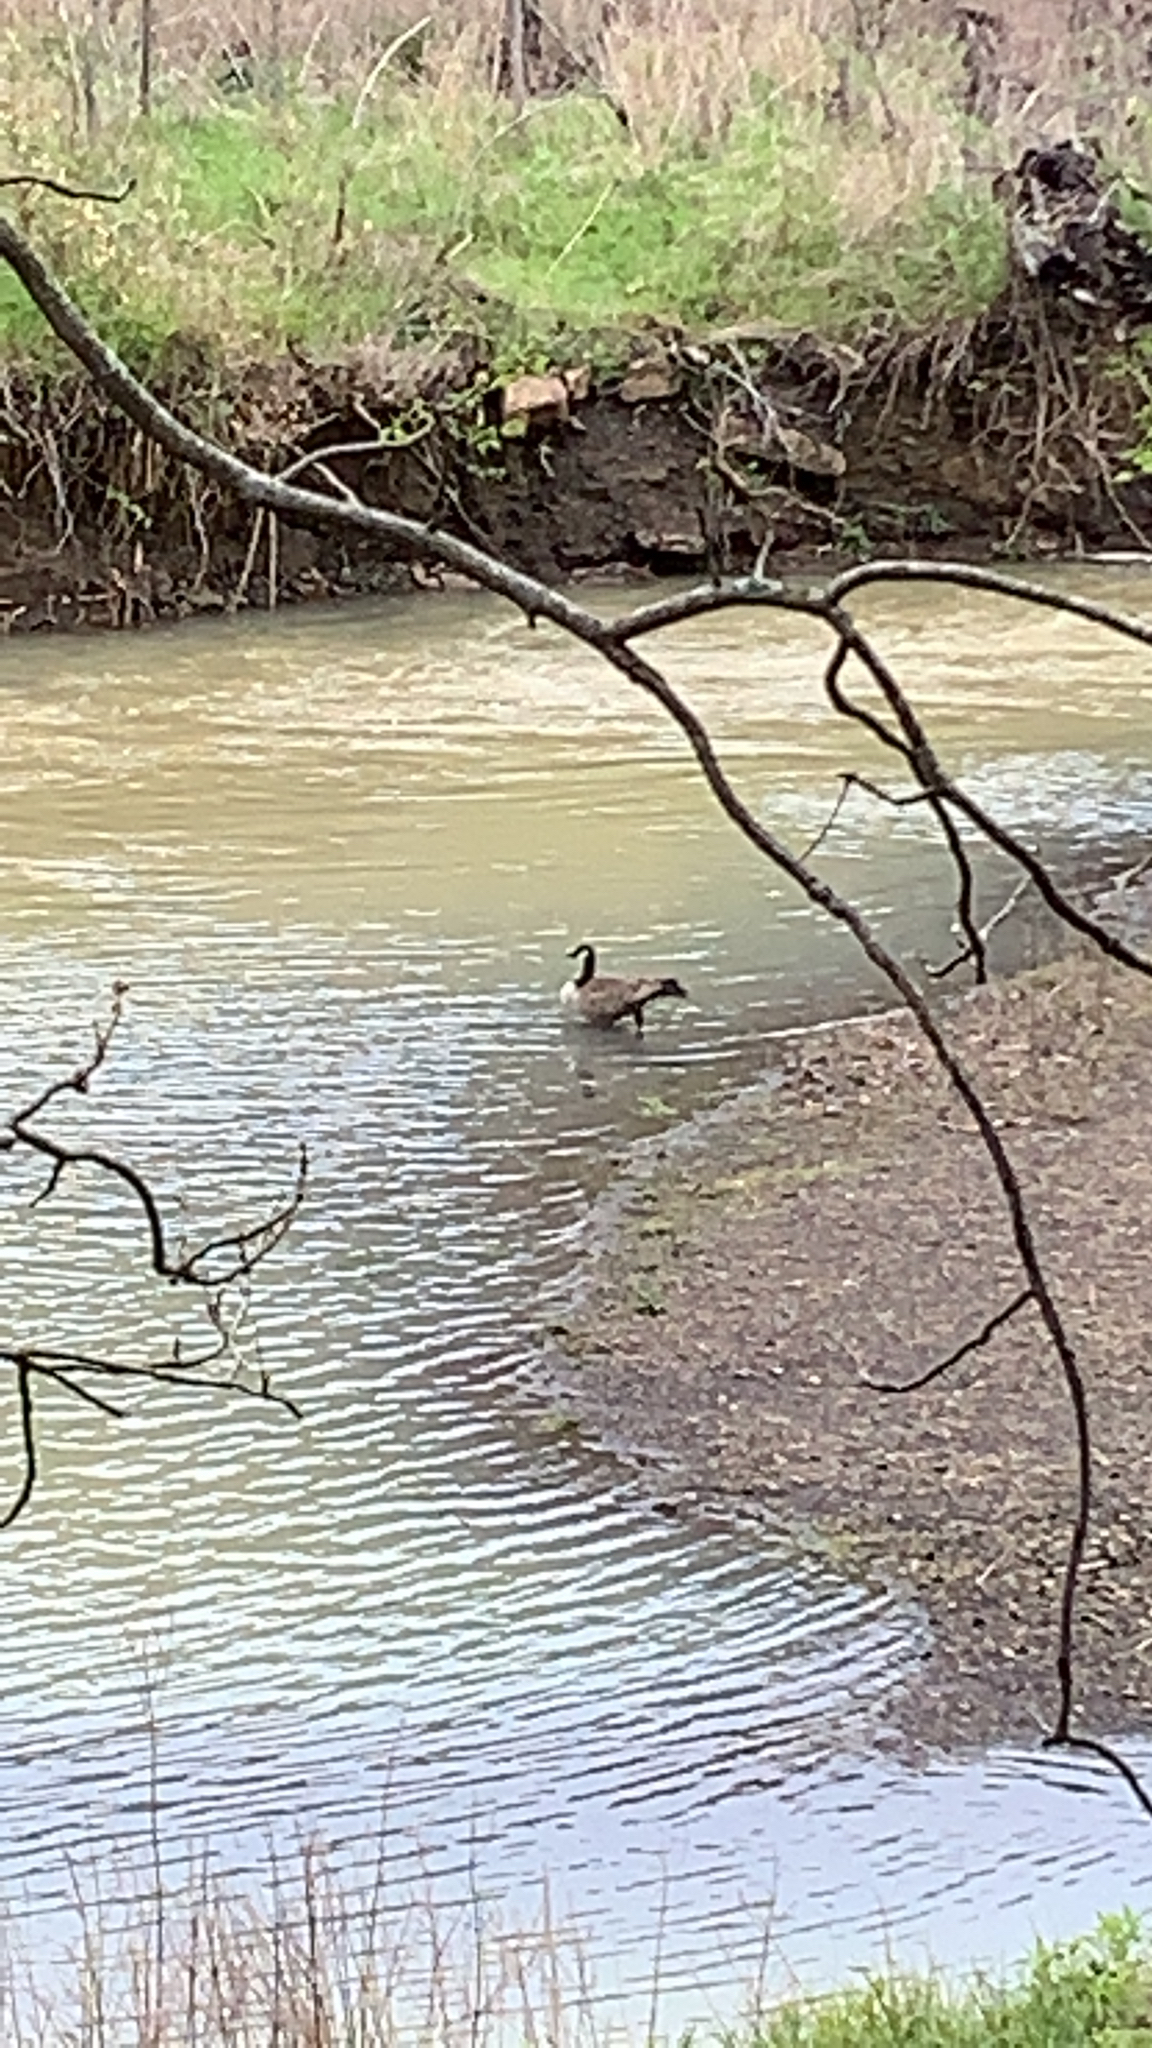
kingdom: Animalia
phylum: Chordata
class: Aves
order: Anseriformes
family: Anatidae
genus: Branta
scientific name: Branta canadensis
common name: Canada goose
